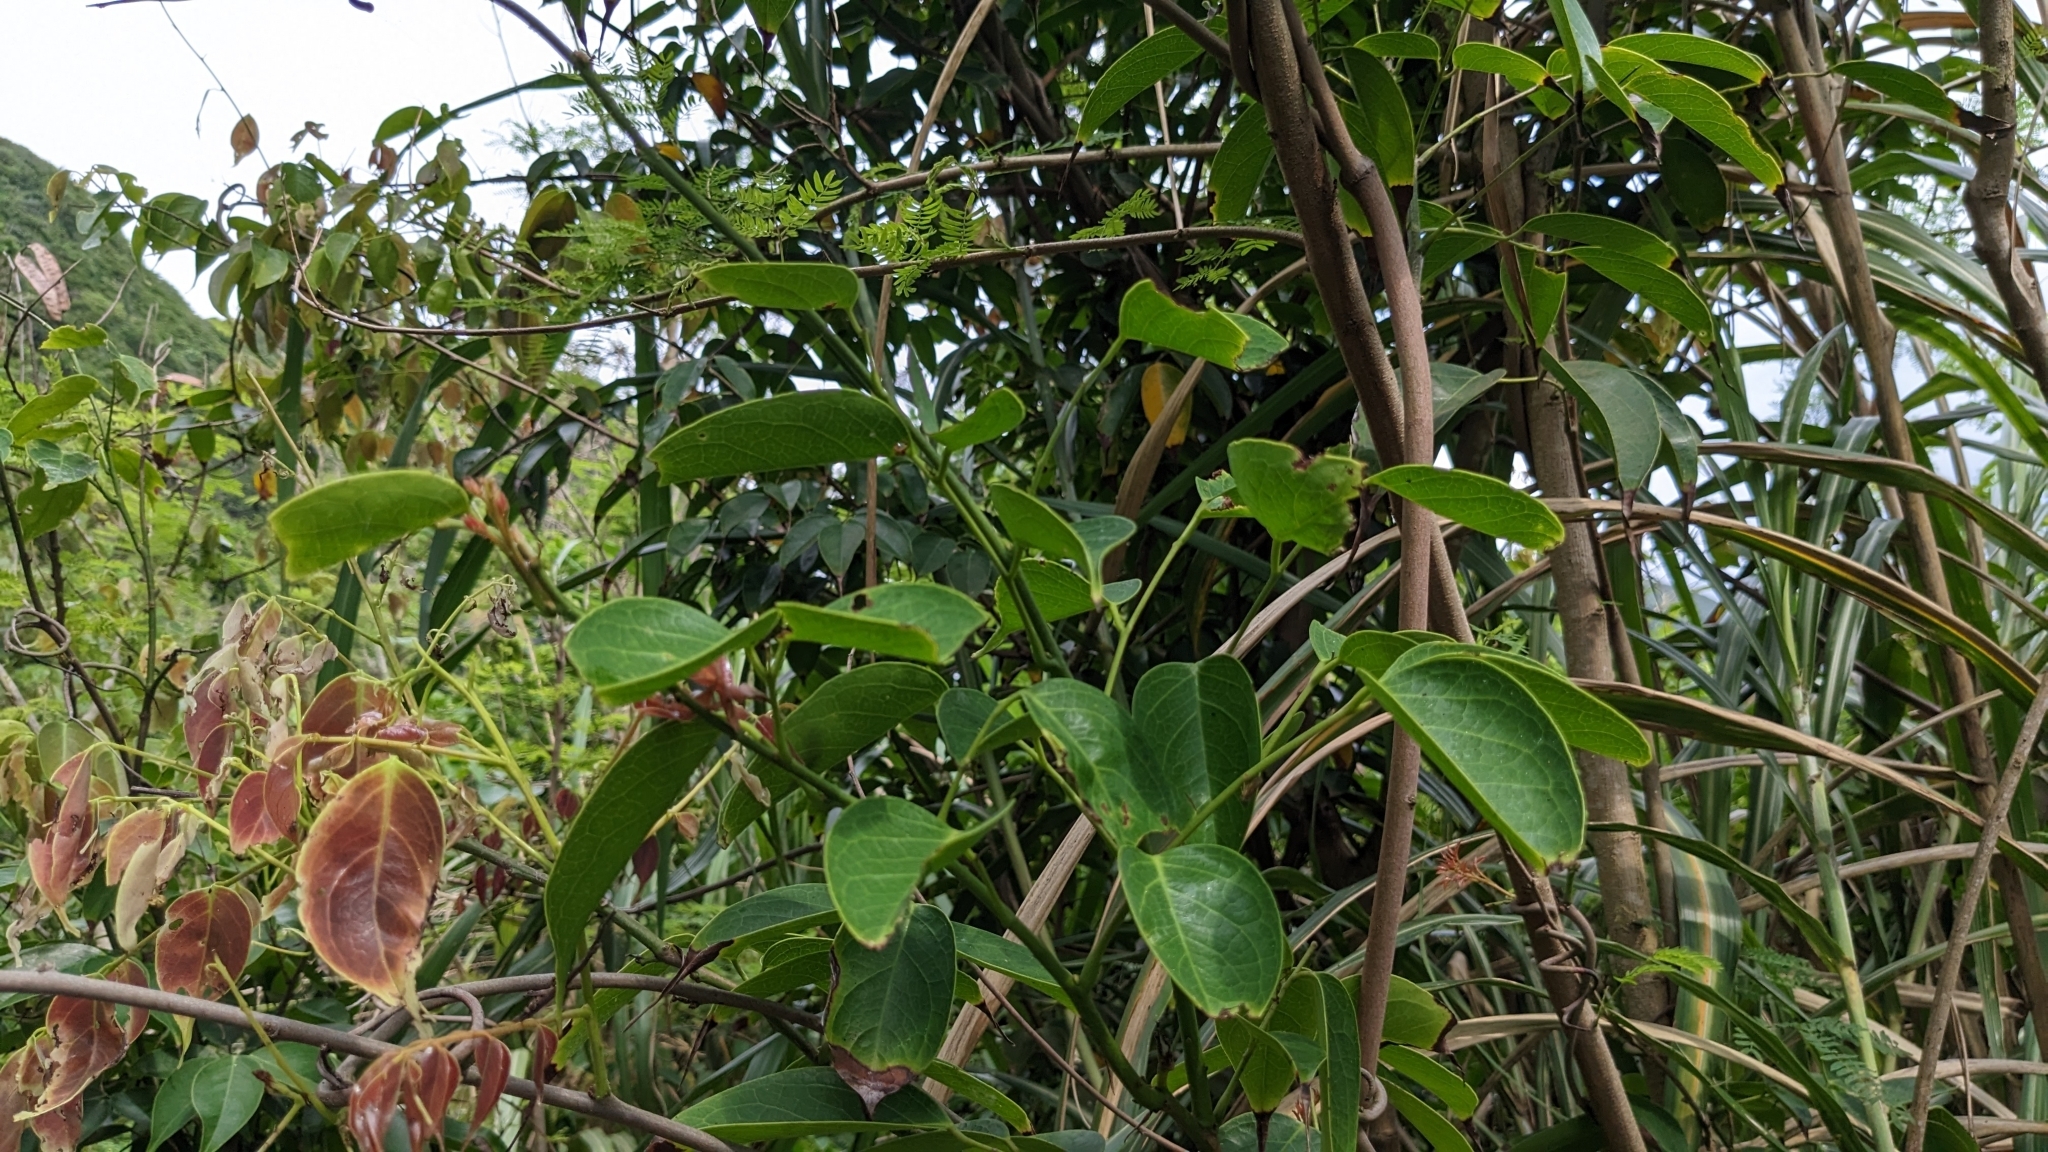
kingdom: Plantae
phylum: Tracheophyta
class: Magnoliopsida
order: Oxalidales
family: Connaraceae
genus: Rourea
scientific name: Rourea minor
